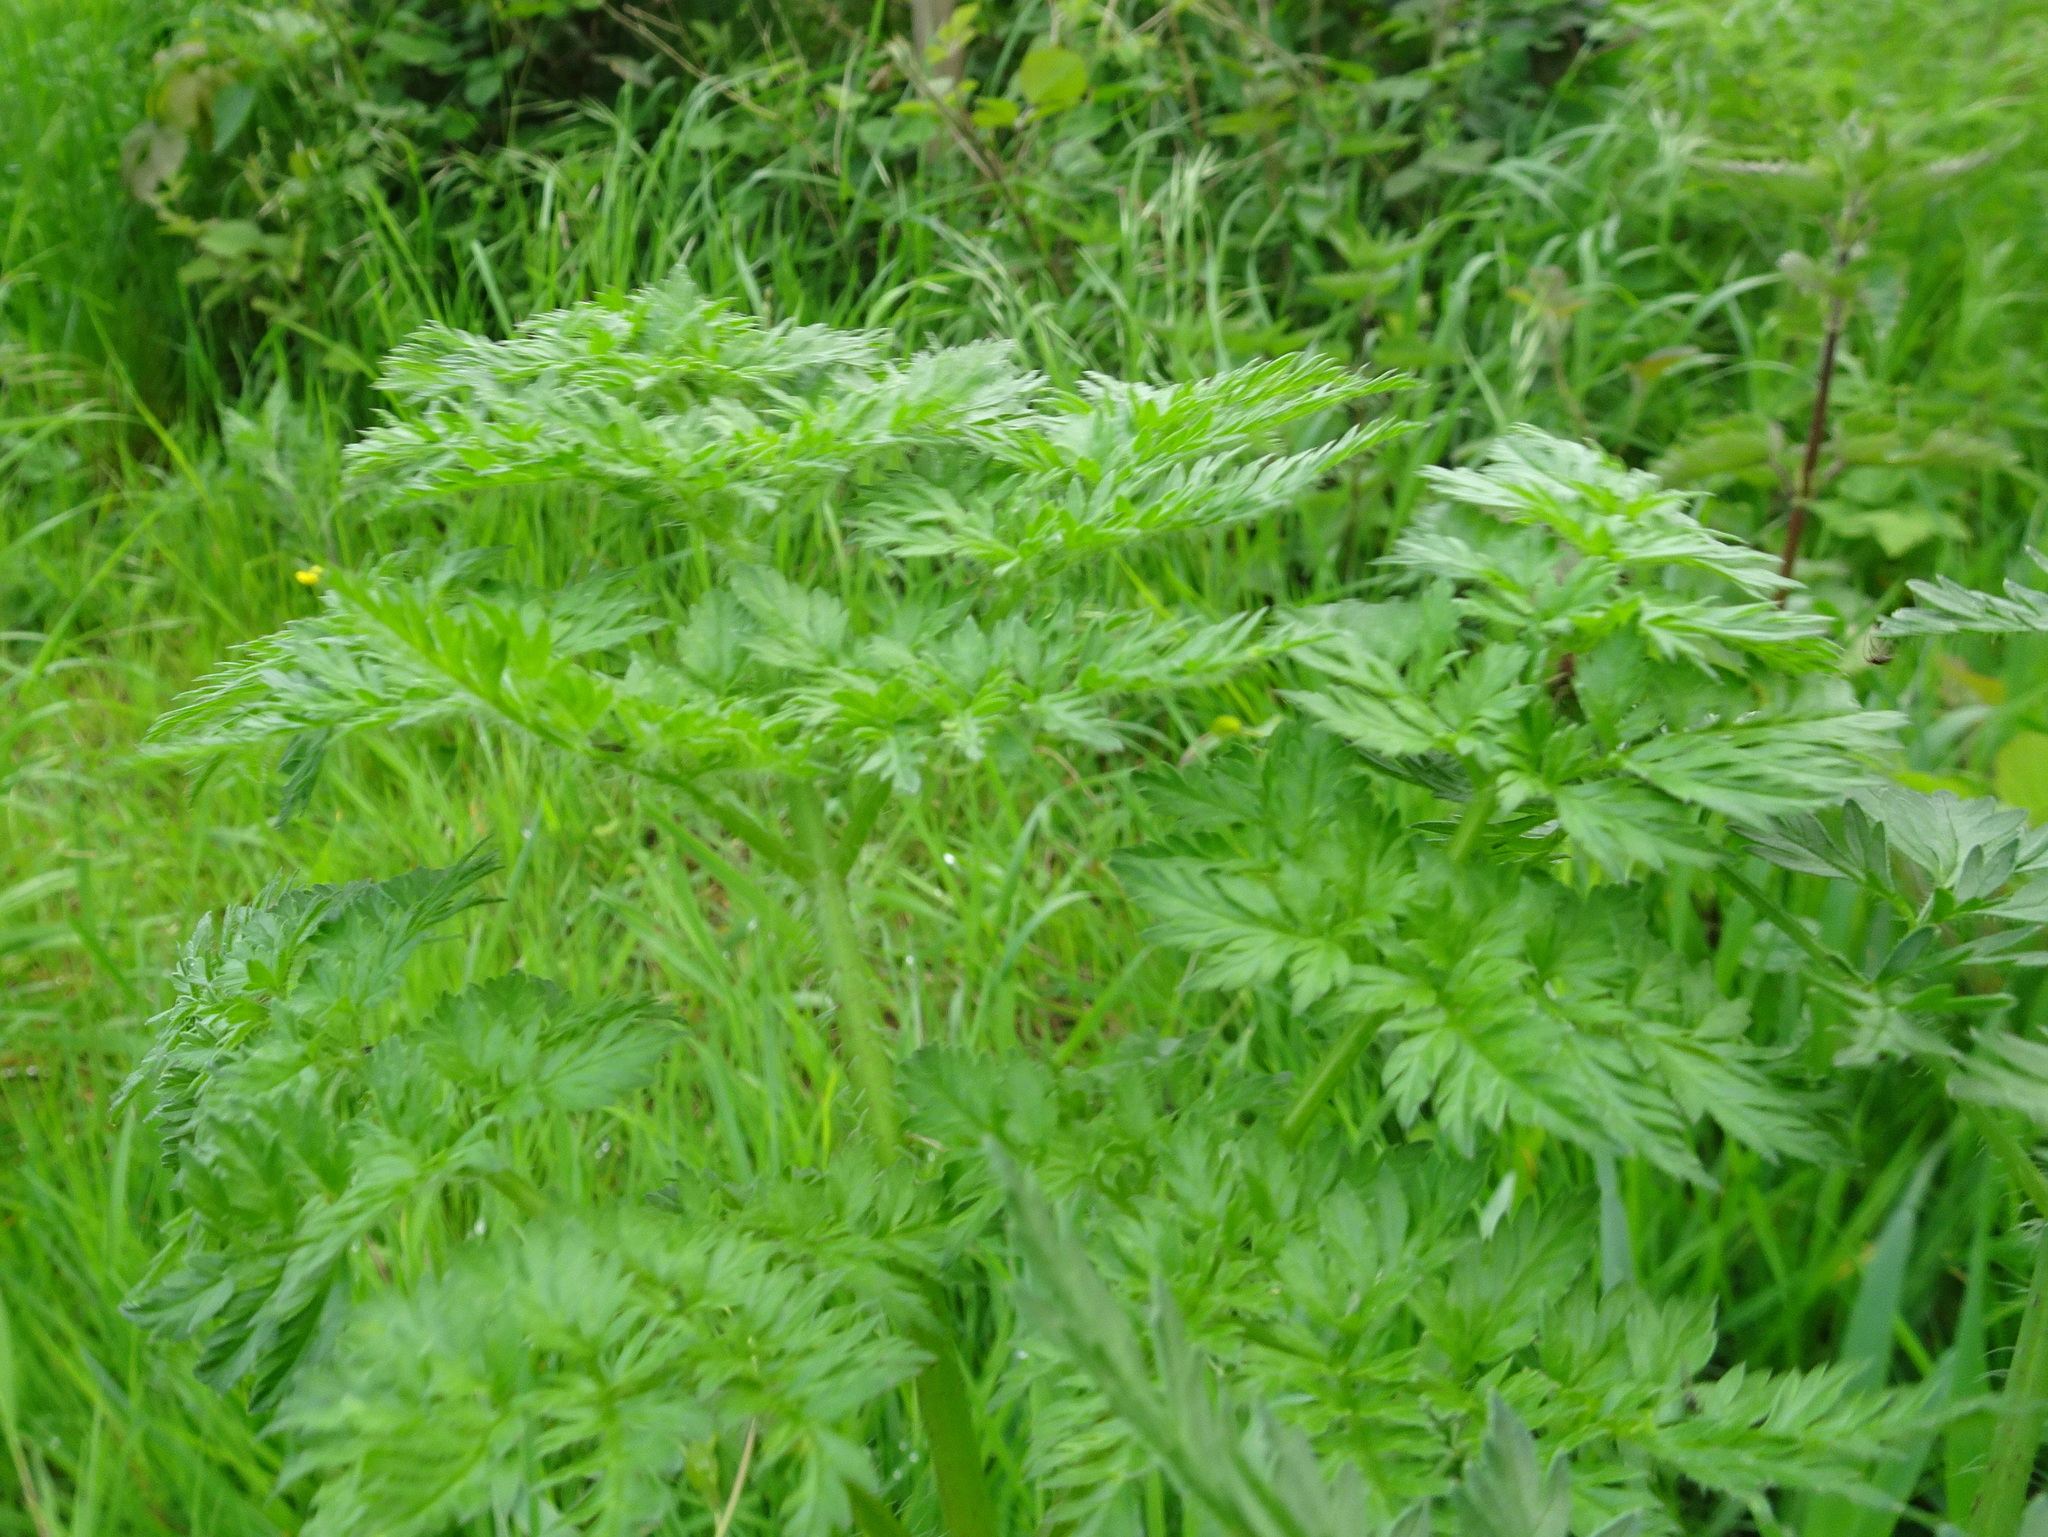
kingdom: Plantae
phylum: Tracheophyta
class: Magnoliopsida
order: Apiales
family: Apiaceae
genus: Conium
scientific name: Conium maculatum
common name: Hemlock
